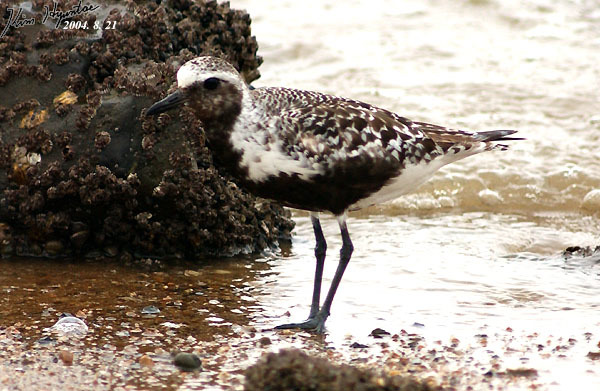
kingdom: Animalia
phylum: Chordata
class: Aves
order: Charadriiformes
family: Charadriidae
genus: Pluvialis
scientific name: Pluvialis squatarola
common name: Grey plover
